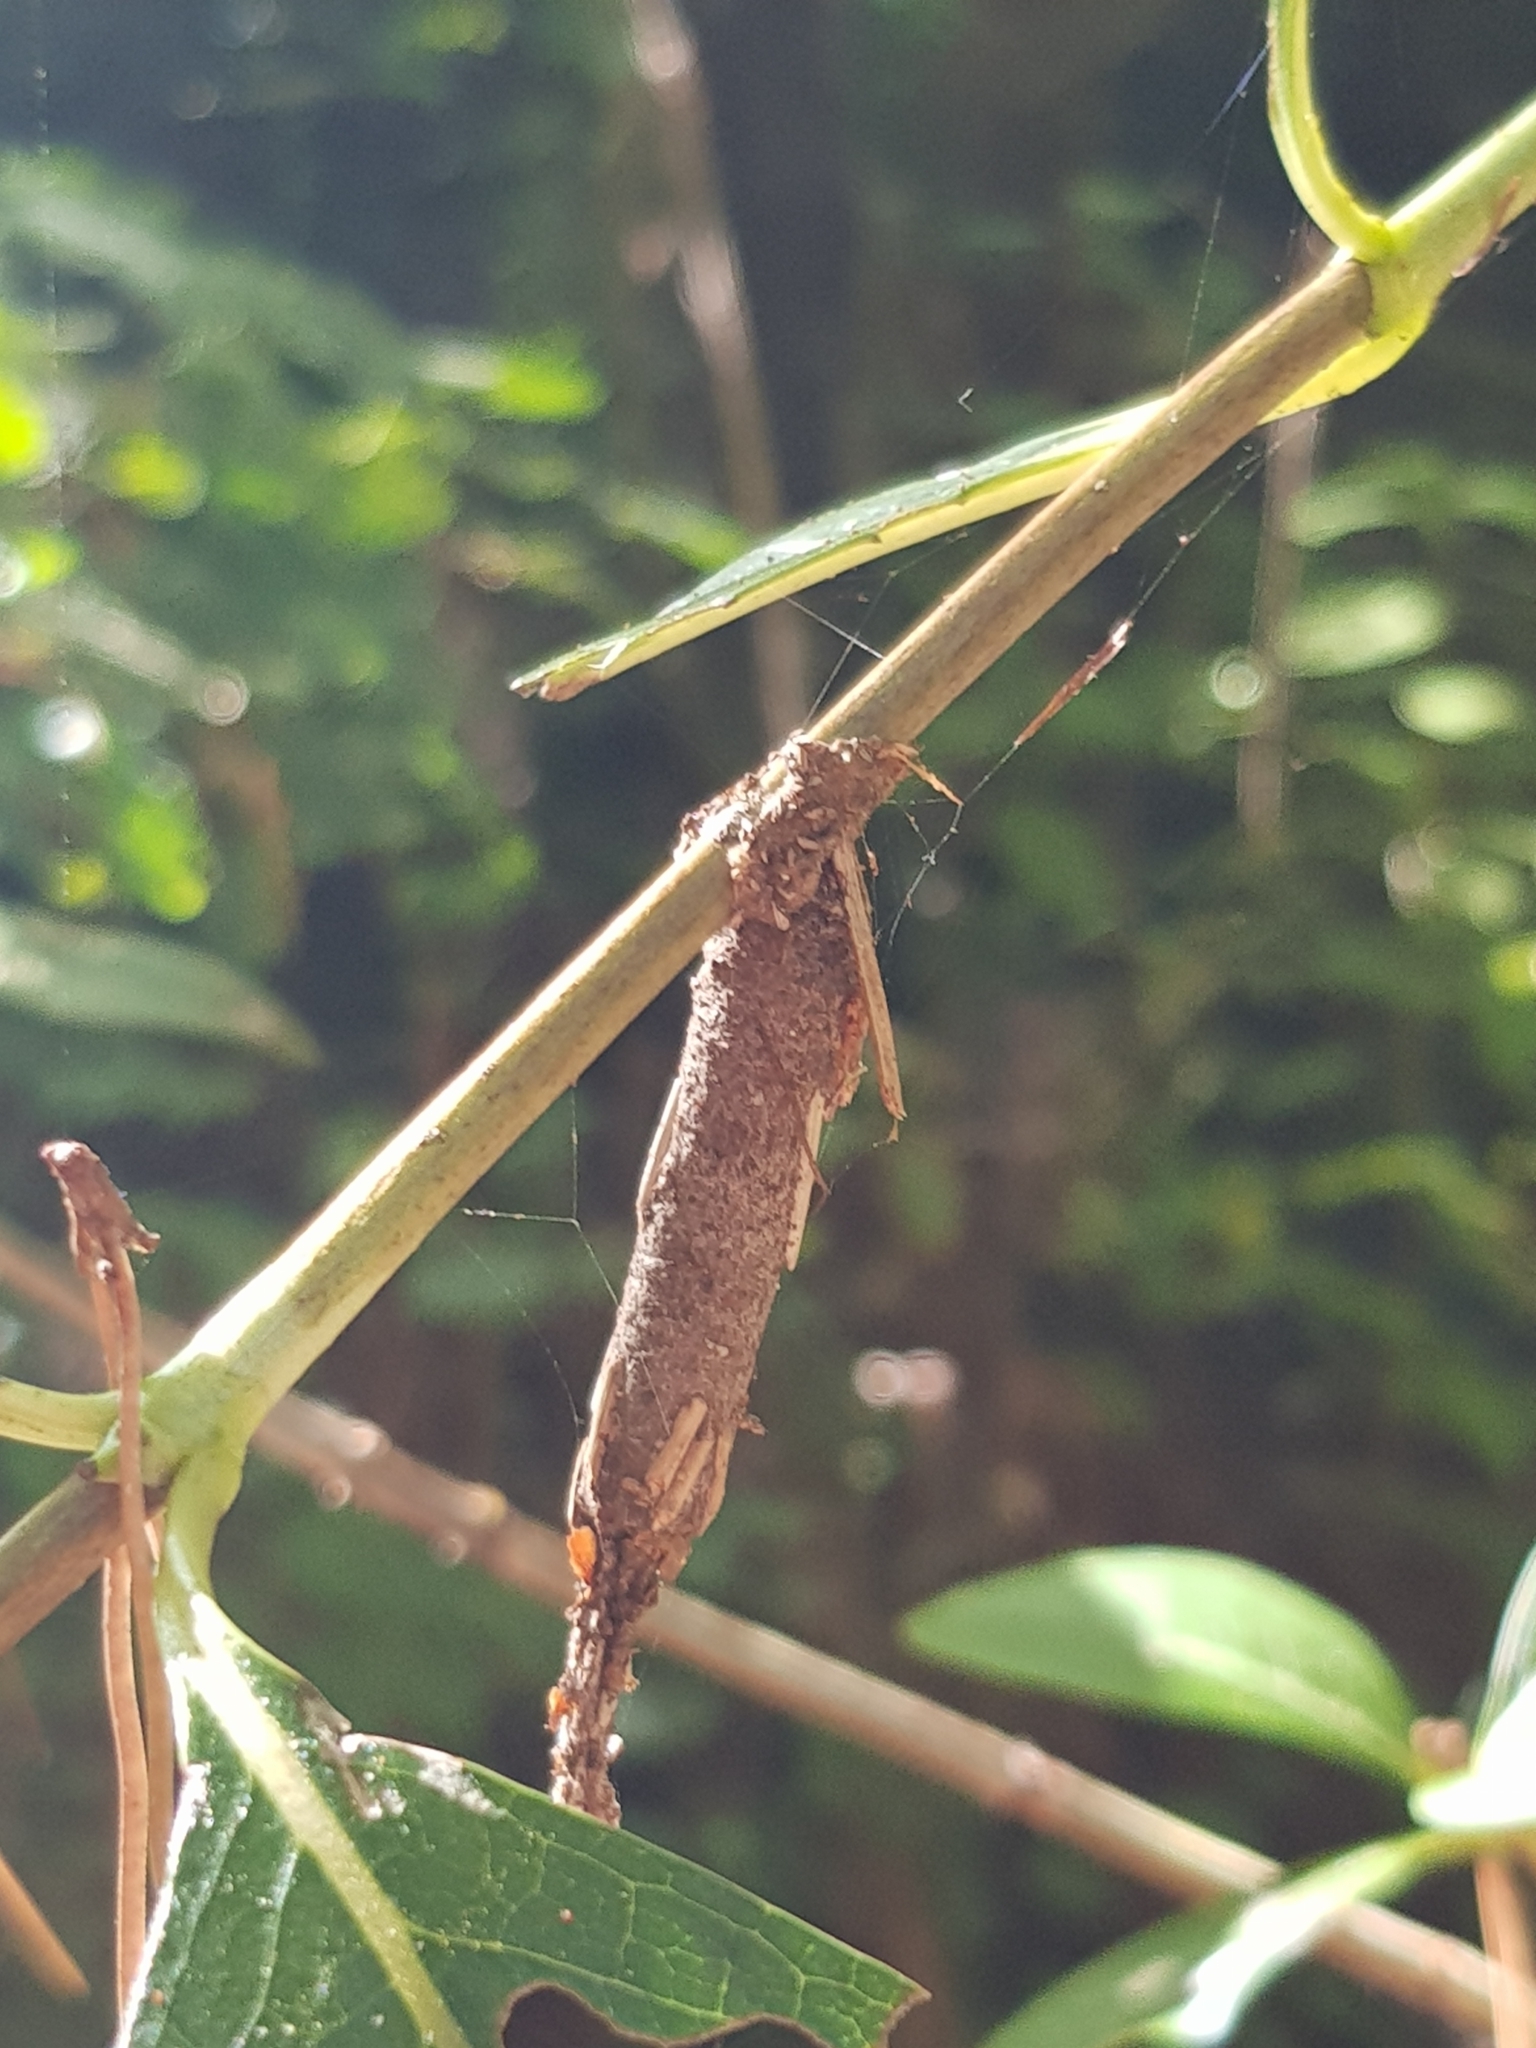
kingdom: Animalia
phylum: Arthropoda
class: Insecta
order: Lepidoptera
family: Psychidae
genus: Liothula
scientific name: Liothula omnivora
